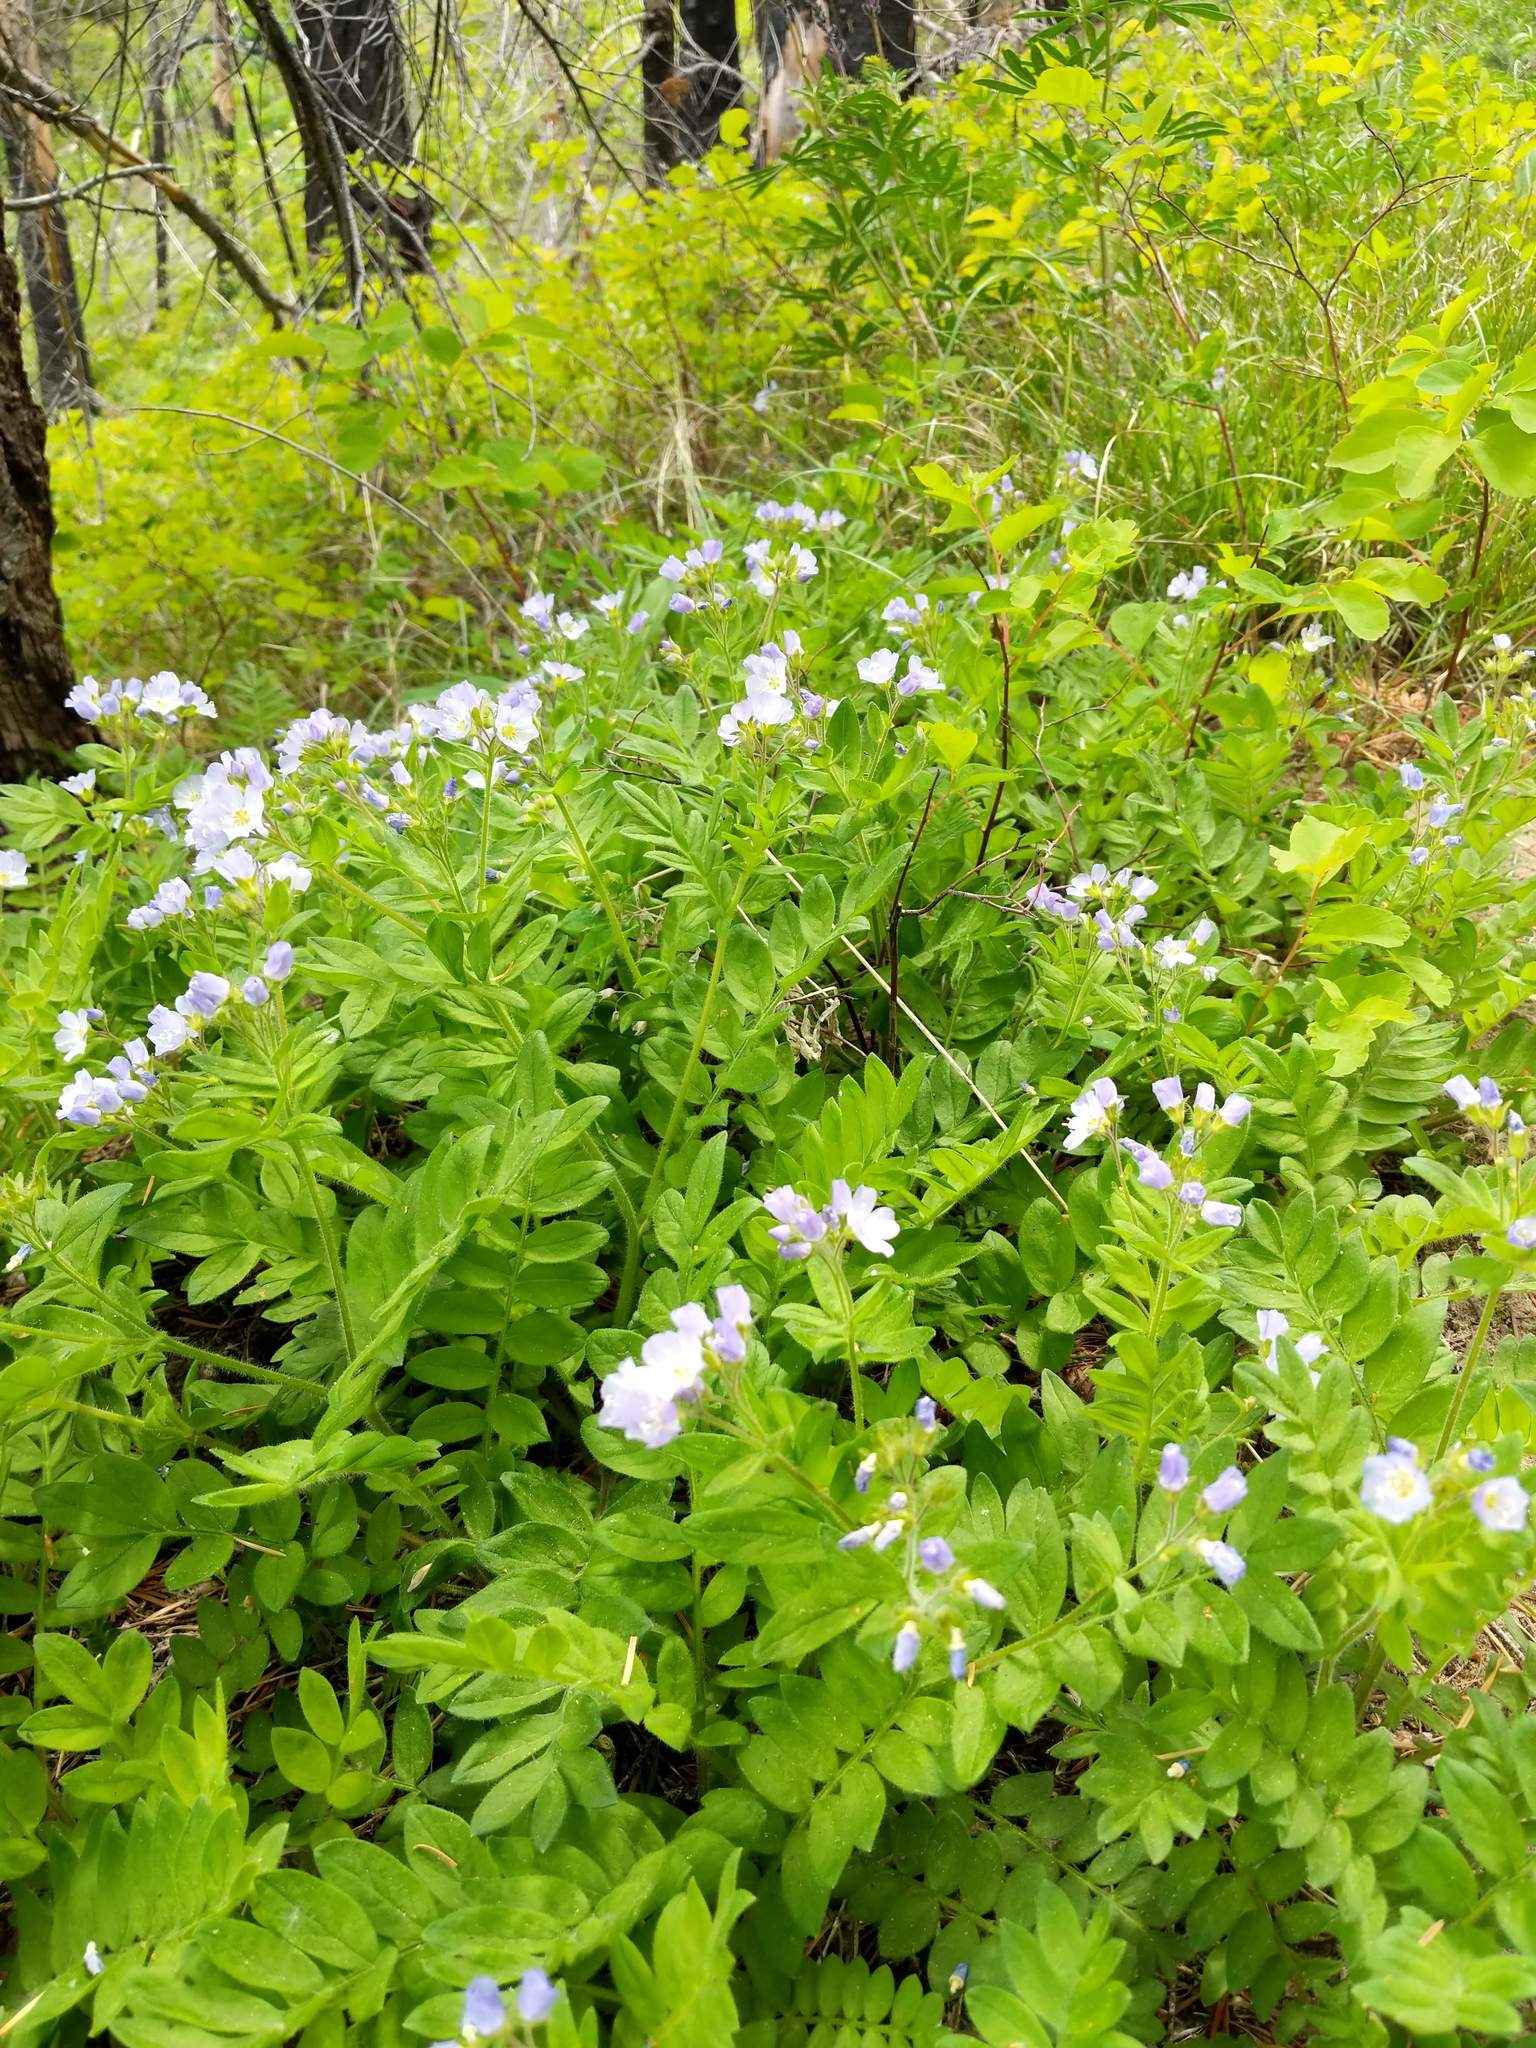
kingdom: Plantae
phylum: Tracheophyta
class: Magnoliopsida
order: Ericales
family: Polemoniaceae
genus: Polemonium
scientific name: Polemonium californicum
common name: California jacob's ladder
